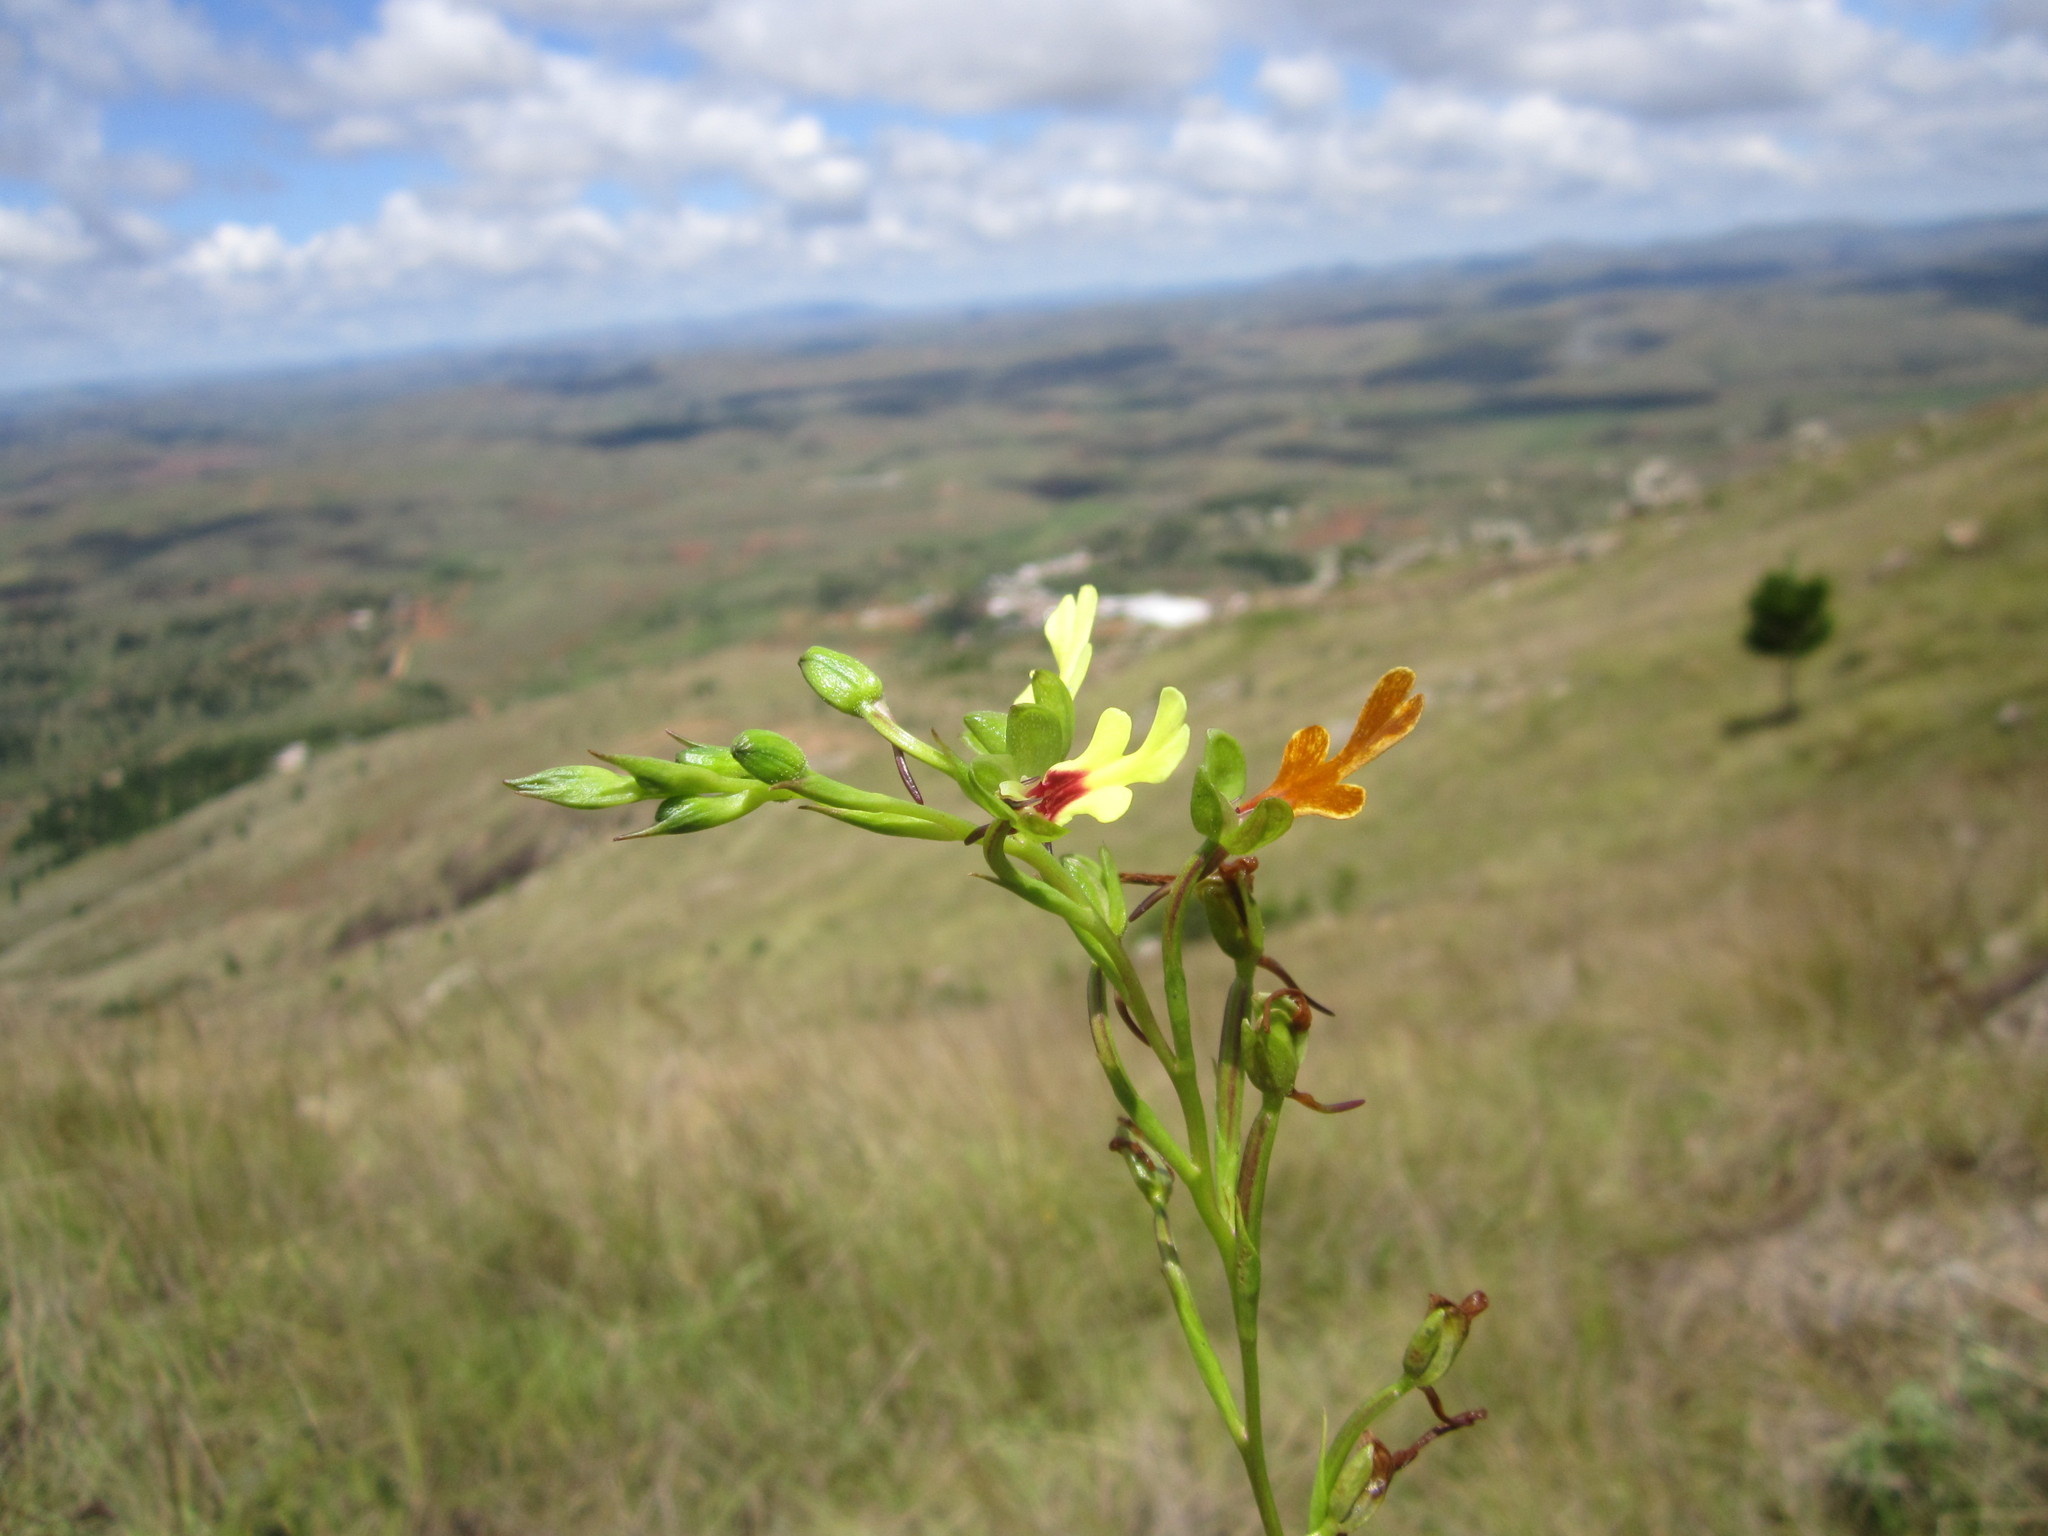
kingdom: Plantae
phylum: Tracheophyta
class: Liliopsida
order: Asparagales
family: Orchidaceae
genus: Cynorkis
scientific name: Cynorkis flexuosa
